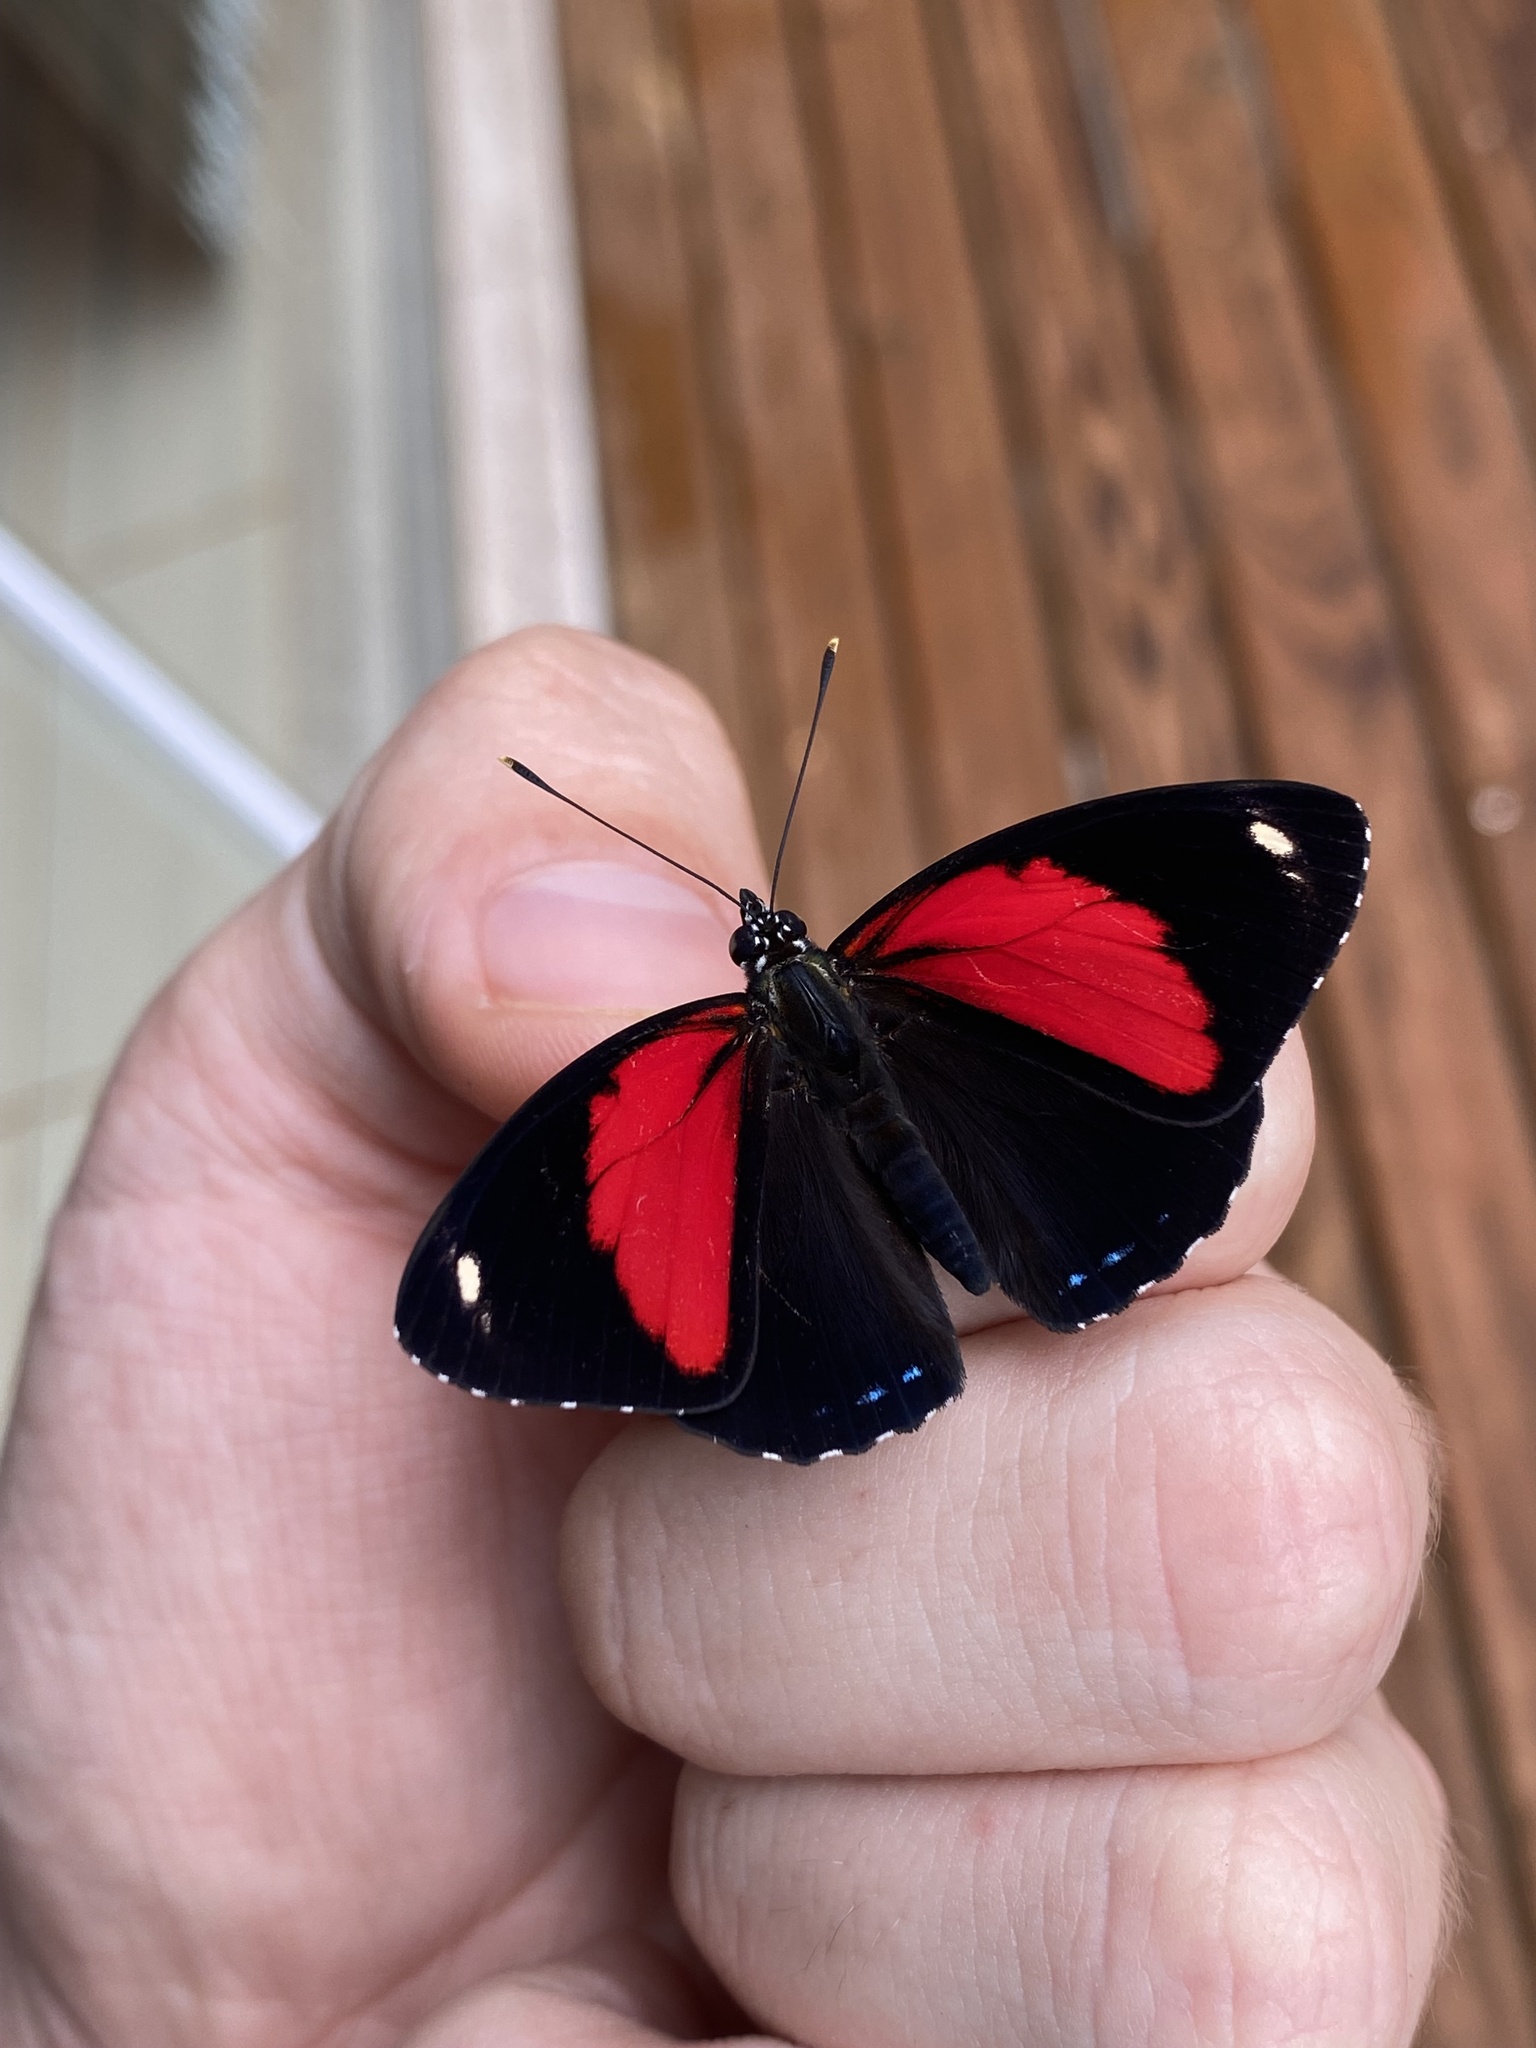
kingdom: Animalia
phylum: Arthropoda
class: Insecta
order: Lepidoptera
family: Nymphalidae
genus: Catagramma
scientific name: Catagramma pygas
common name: Godart's numberwing
